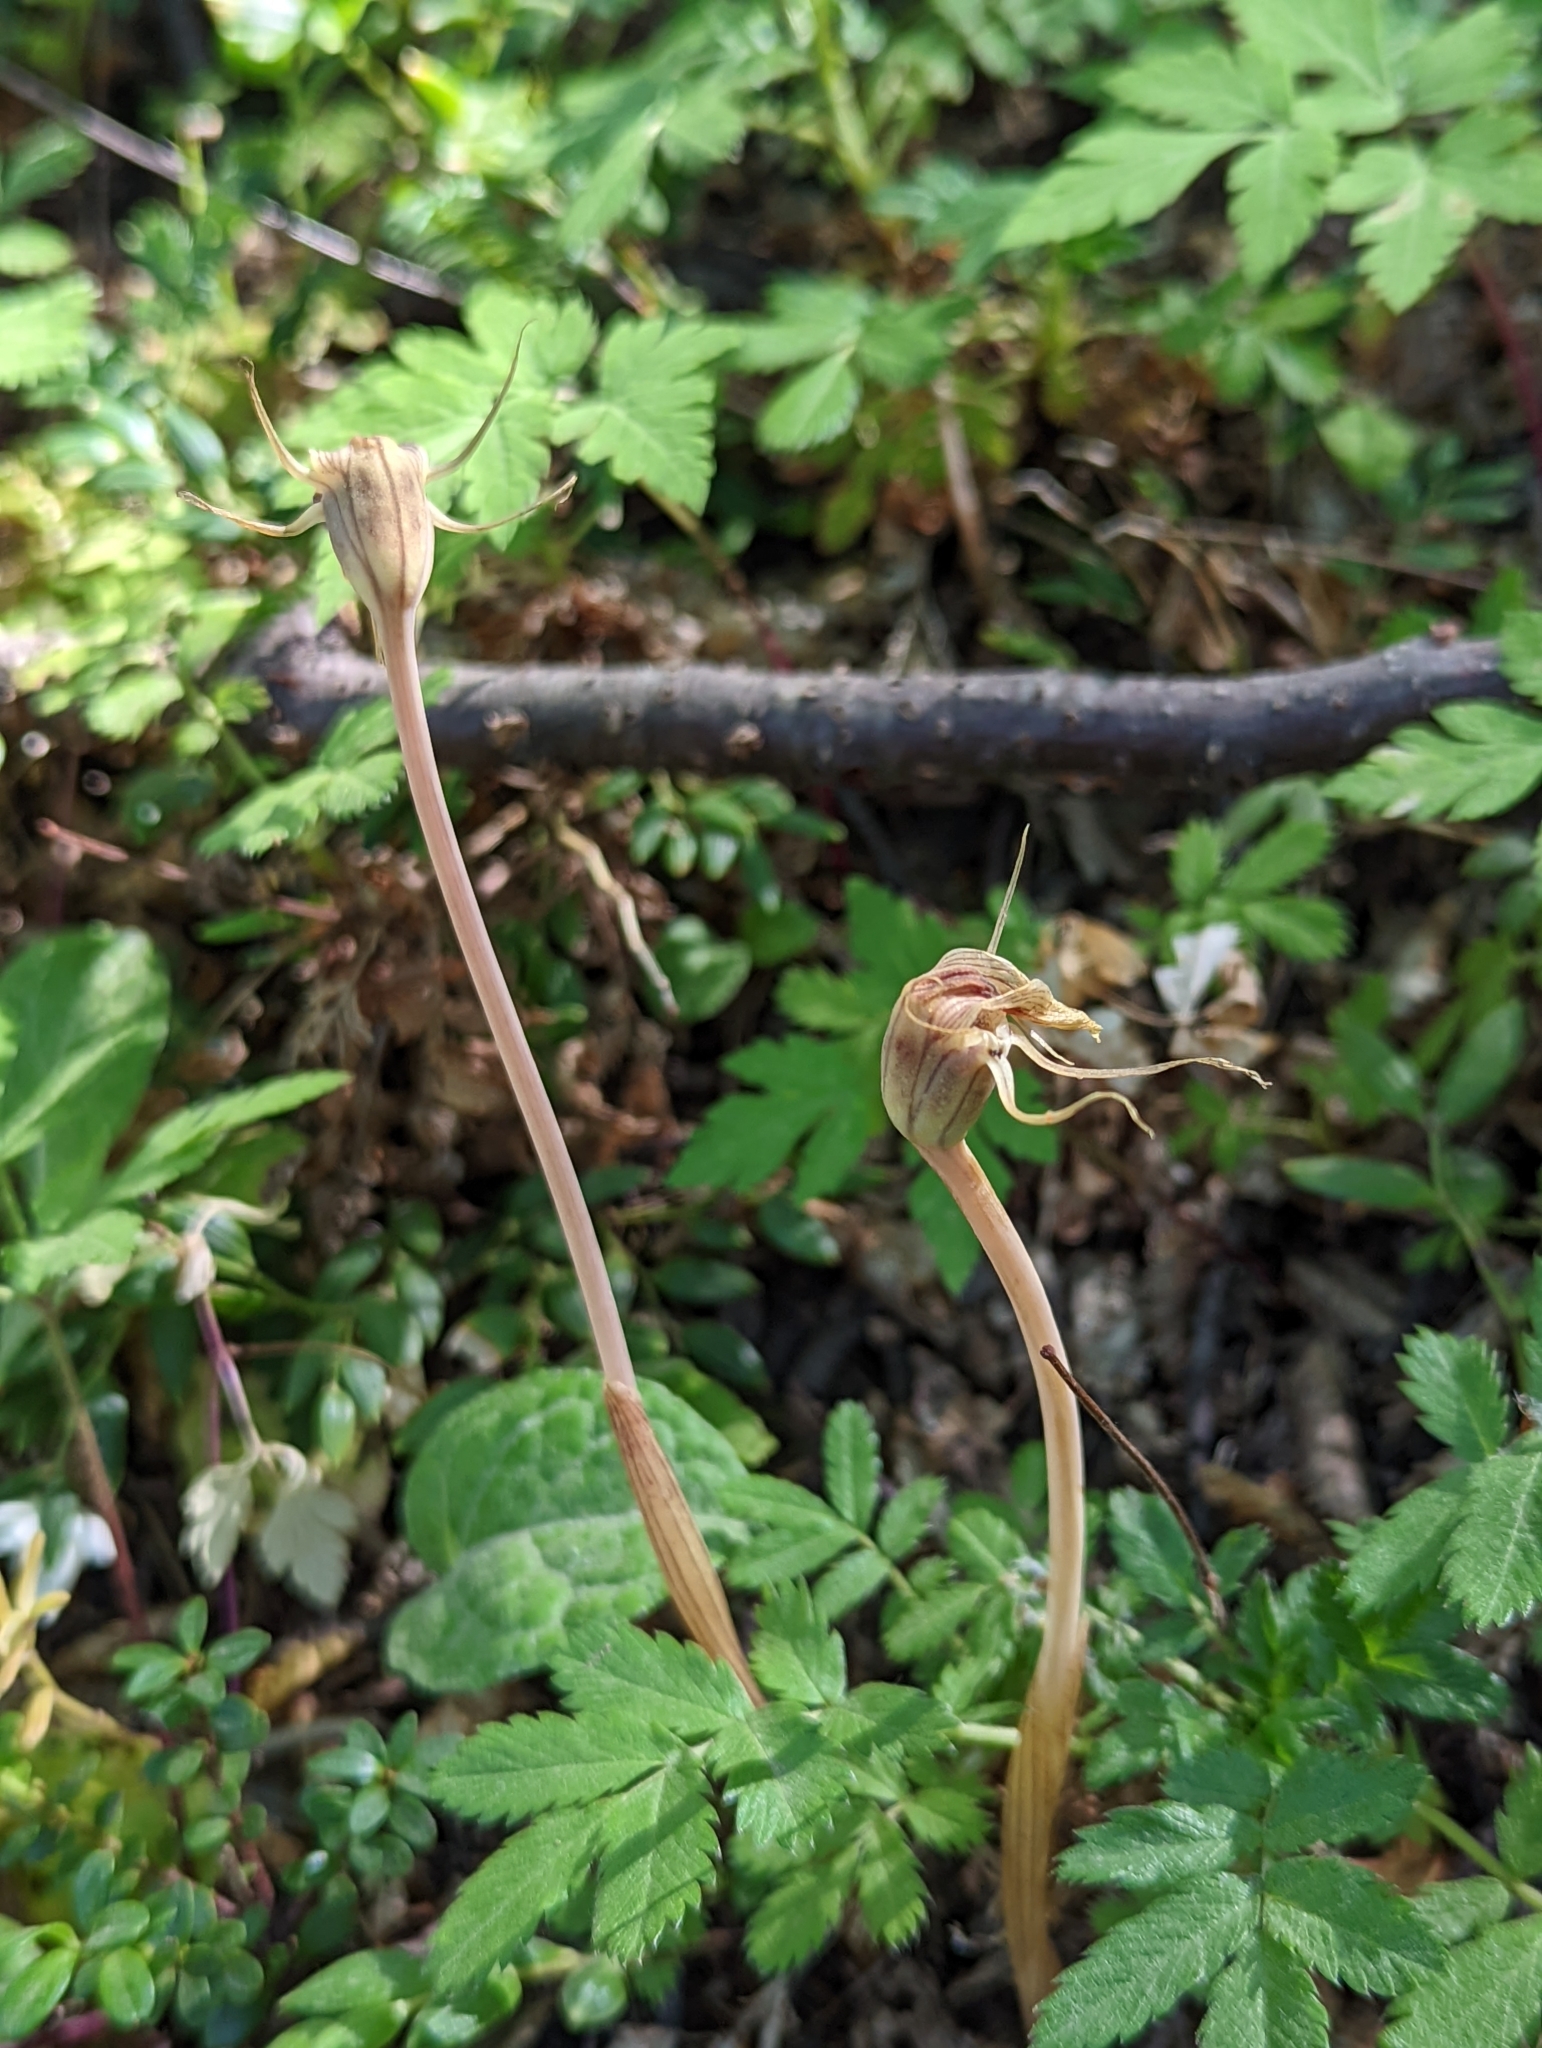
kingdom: Plantae
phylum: Tracheophyta
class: Liliopsida
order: Liliales
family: Corsiaceae
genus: Arachnitis
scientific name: Arachnitis uniflora
